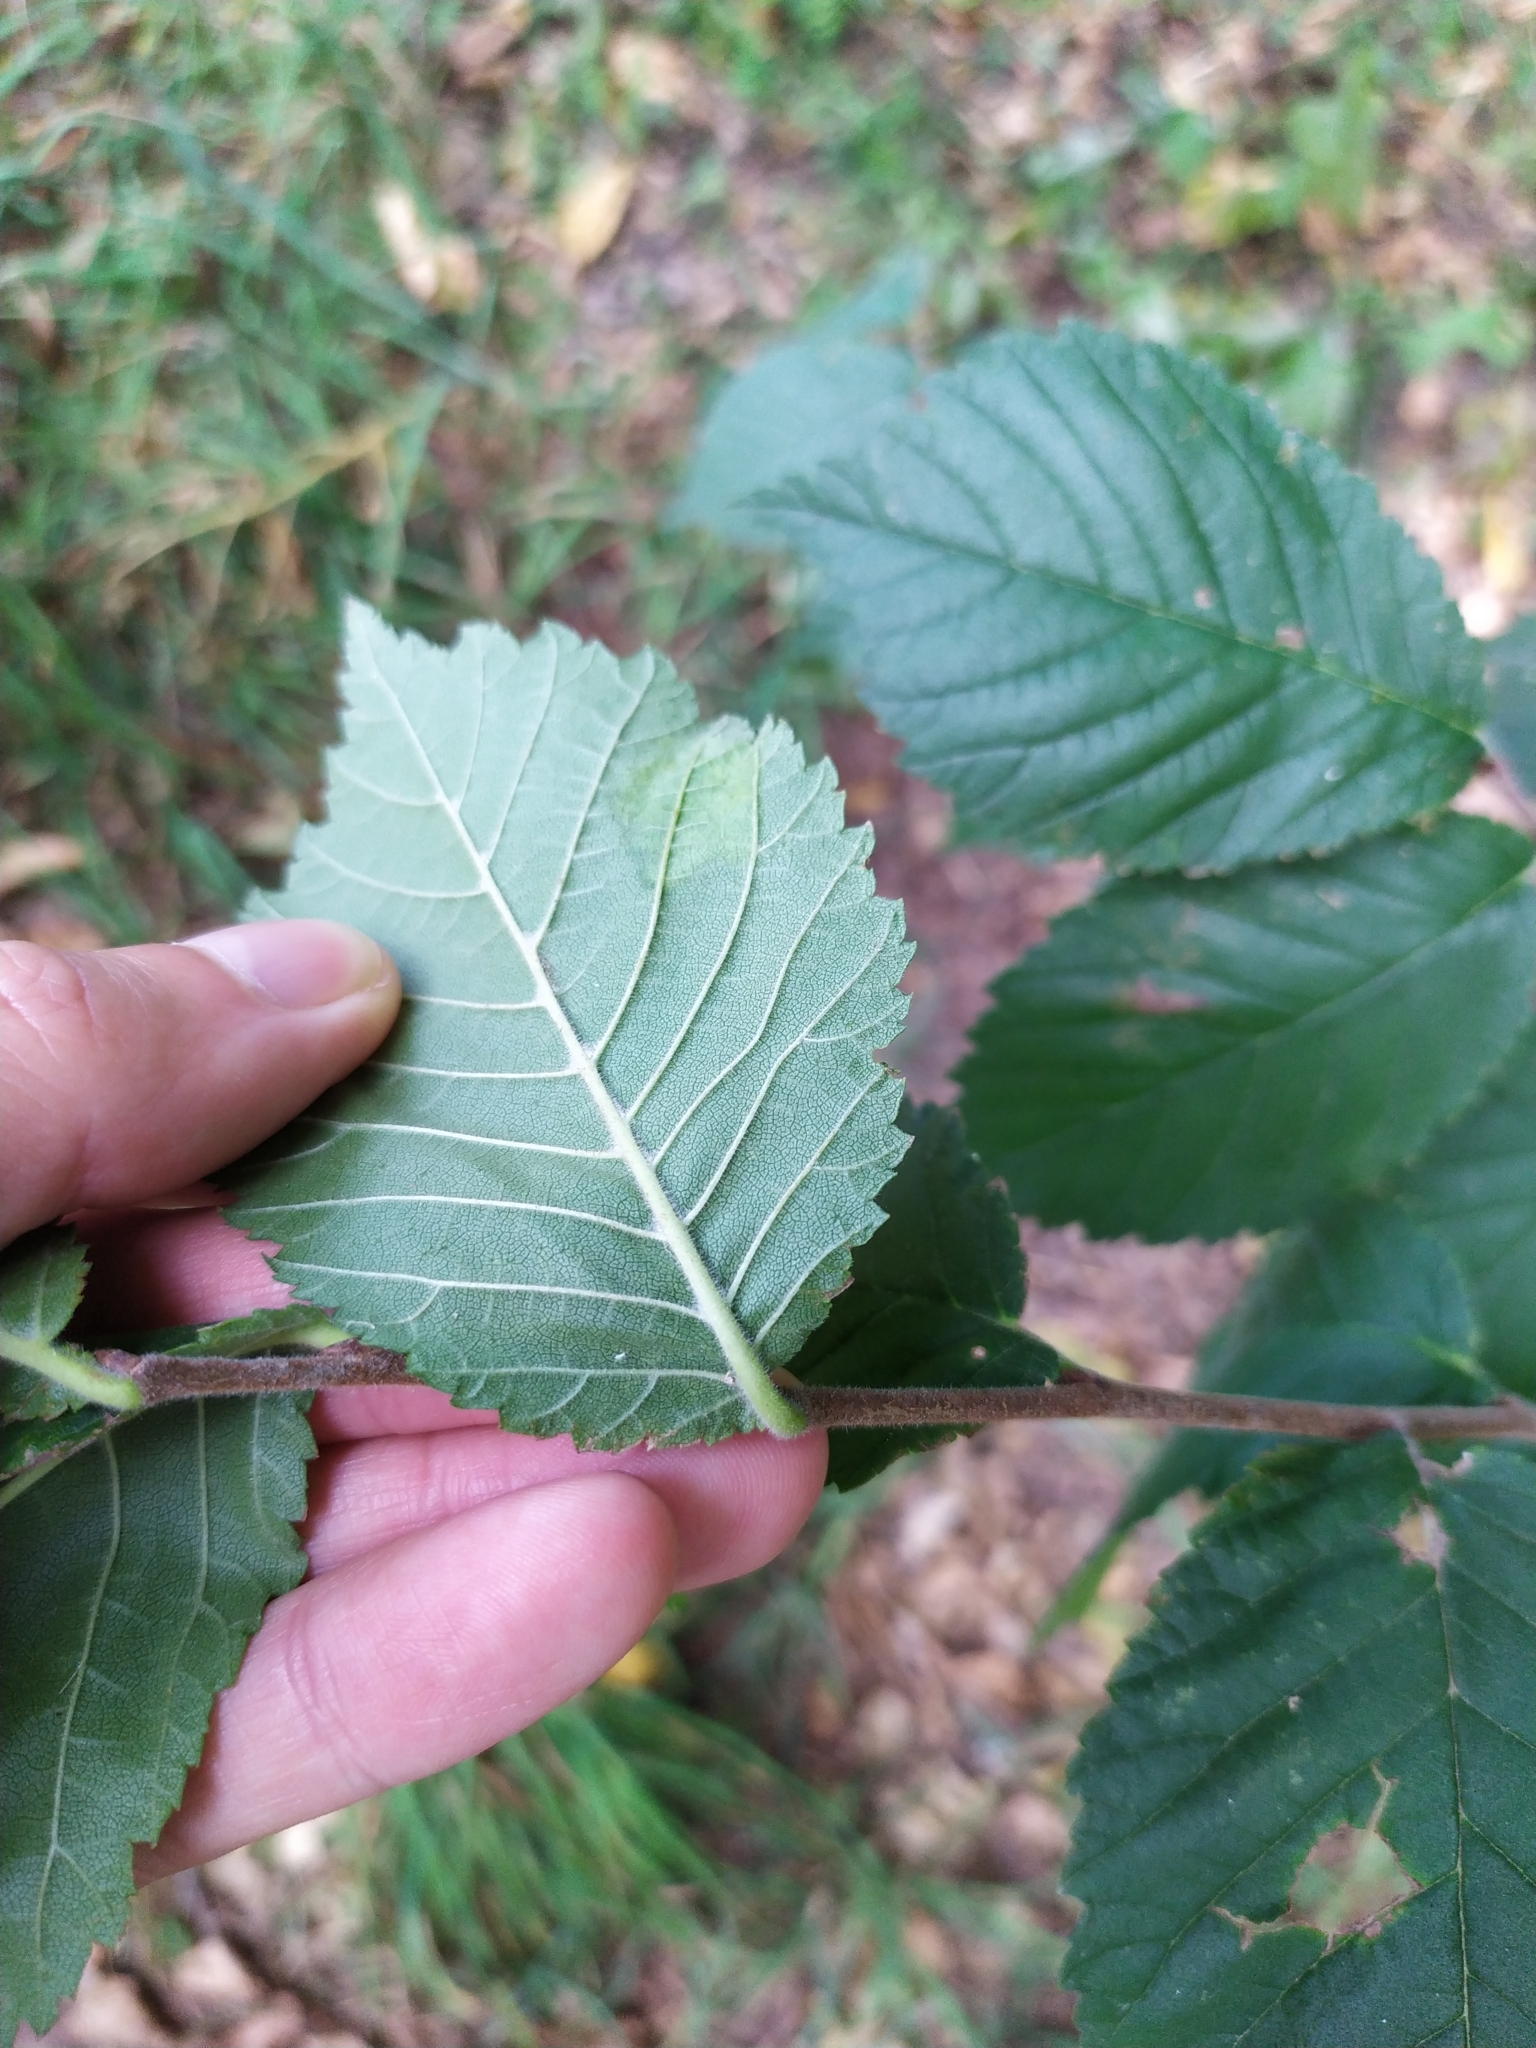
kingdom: Plantae
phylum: Tracheophyta
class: Magnoliopsida
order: Rosales
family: Ulmaceae
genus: Ulmus
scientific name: Ulmus glabra
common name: Wych elm
